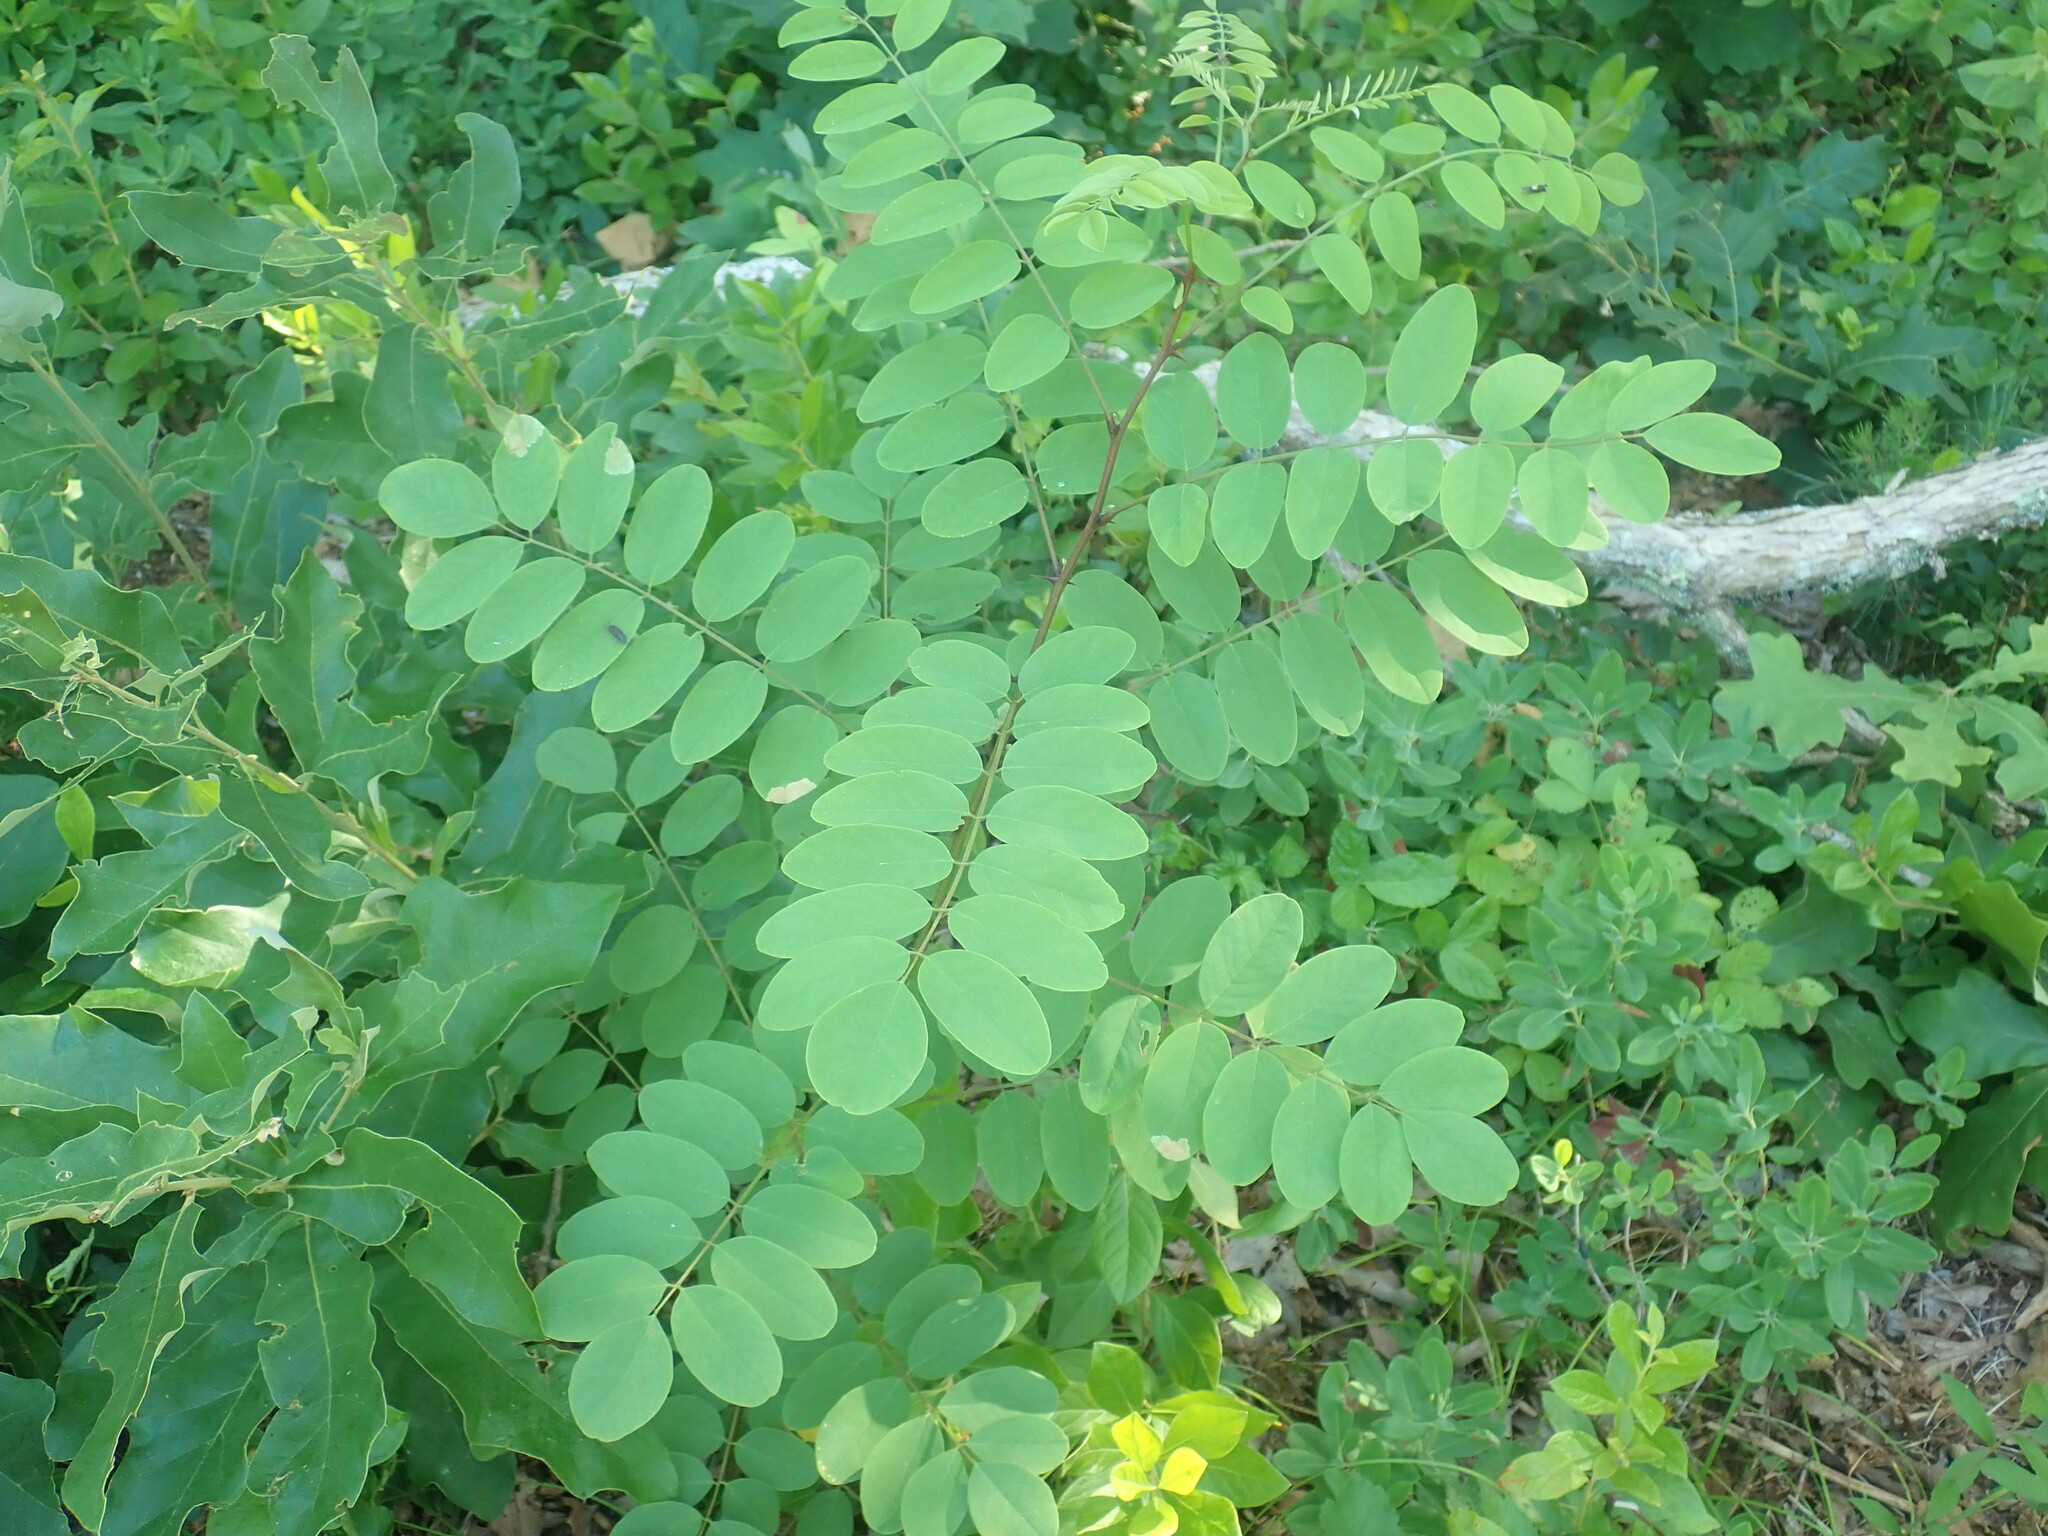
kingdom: Plantae
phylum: Tracheophyta
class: Magnoliopsida
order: Fabales
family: Fabaceae
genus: Robinia
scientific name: Robinia pseudoacacia
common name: Black locust
